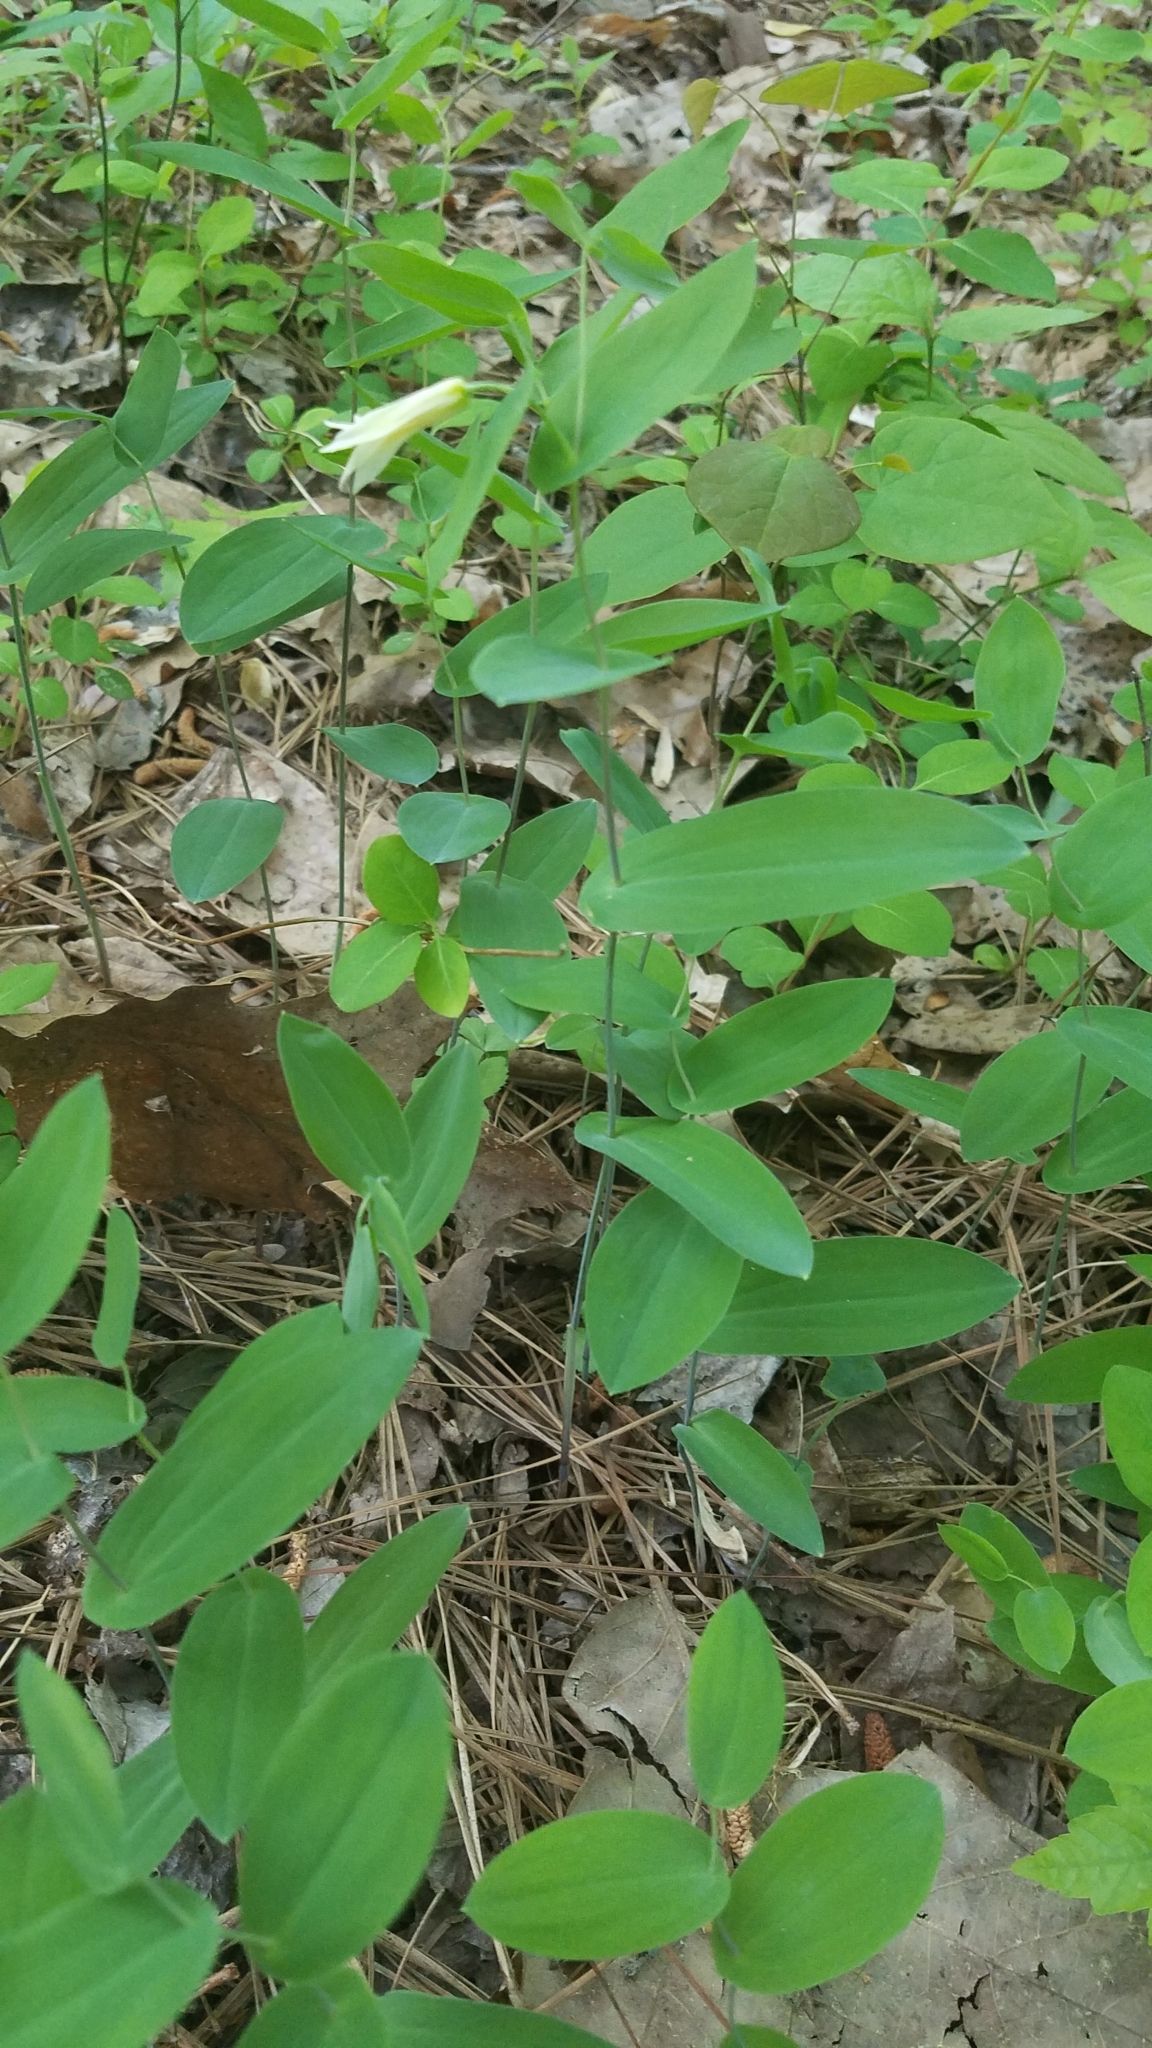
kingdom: Plantae
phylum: Tracheophyta
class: Liliopsida
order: Liliales
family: Colchicaceae
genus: Uvularia
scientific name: Uvularia perfoliata
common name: Perfoliate bellwort
